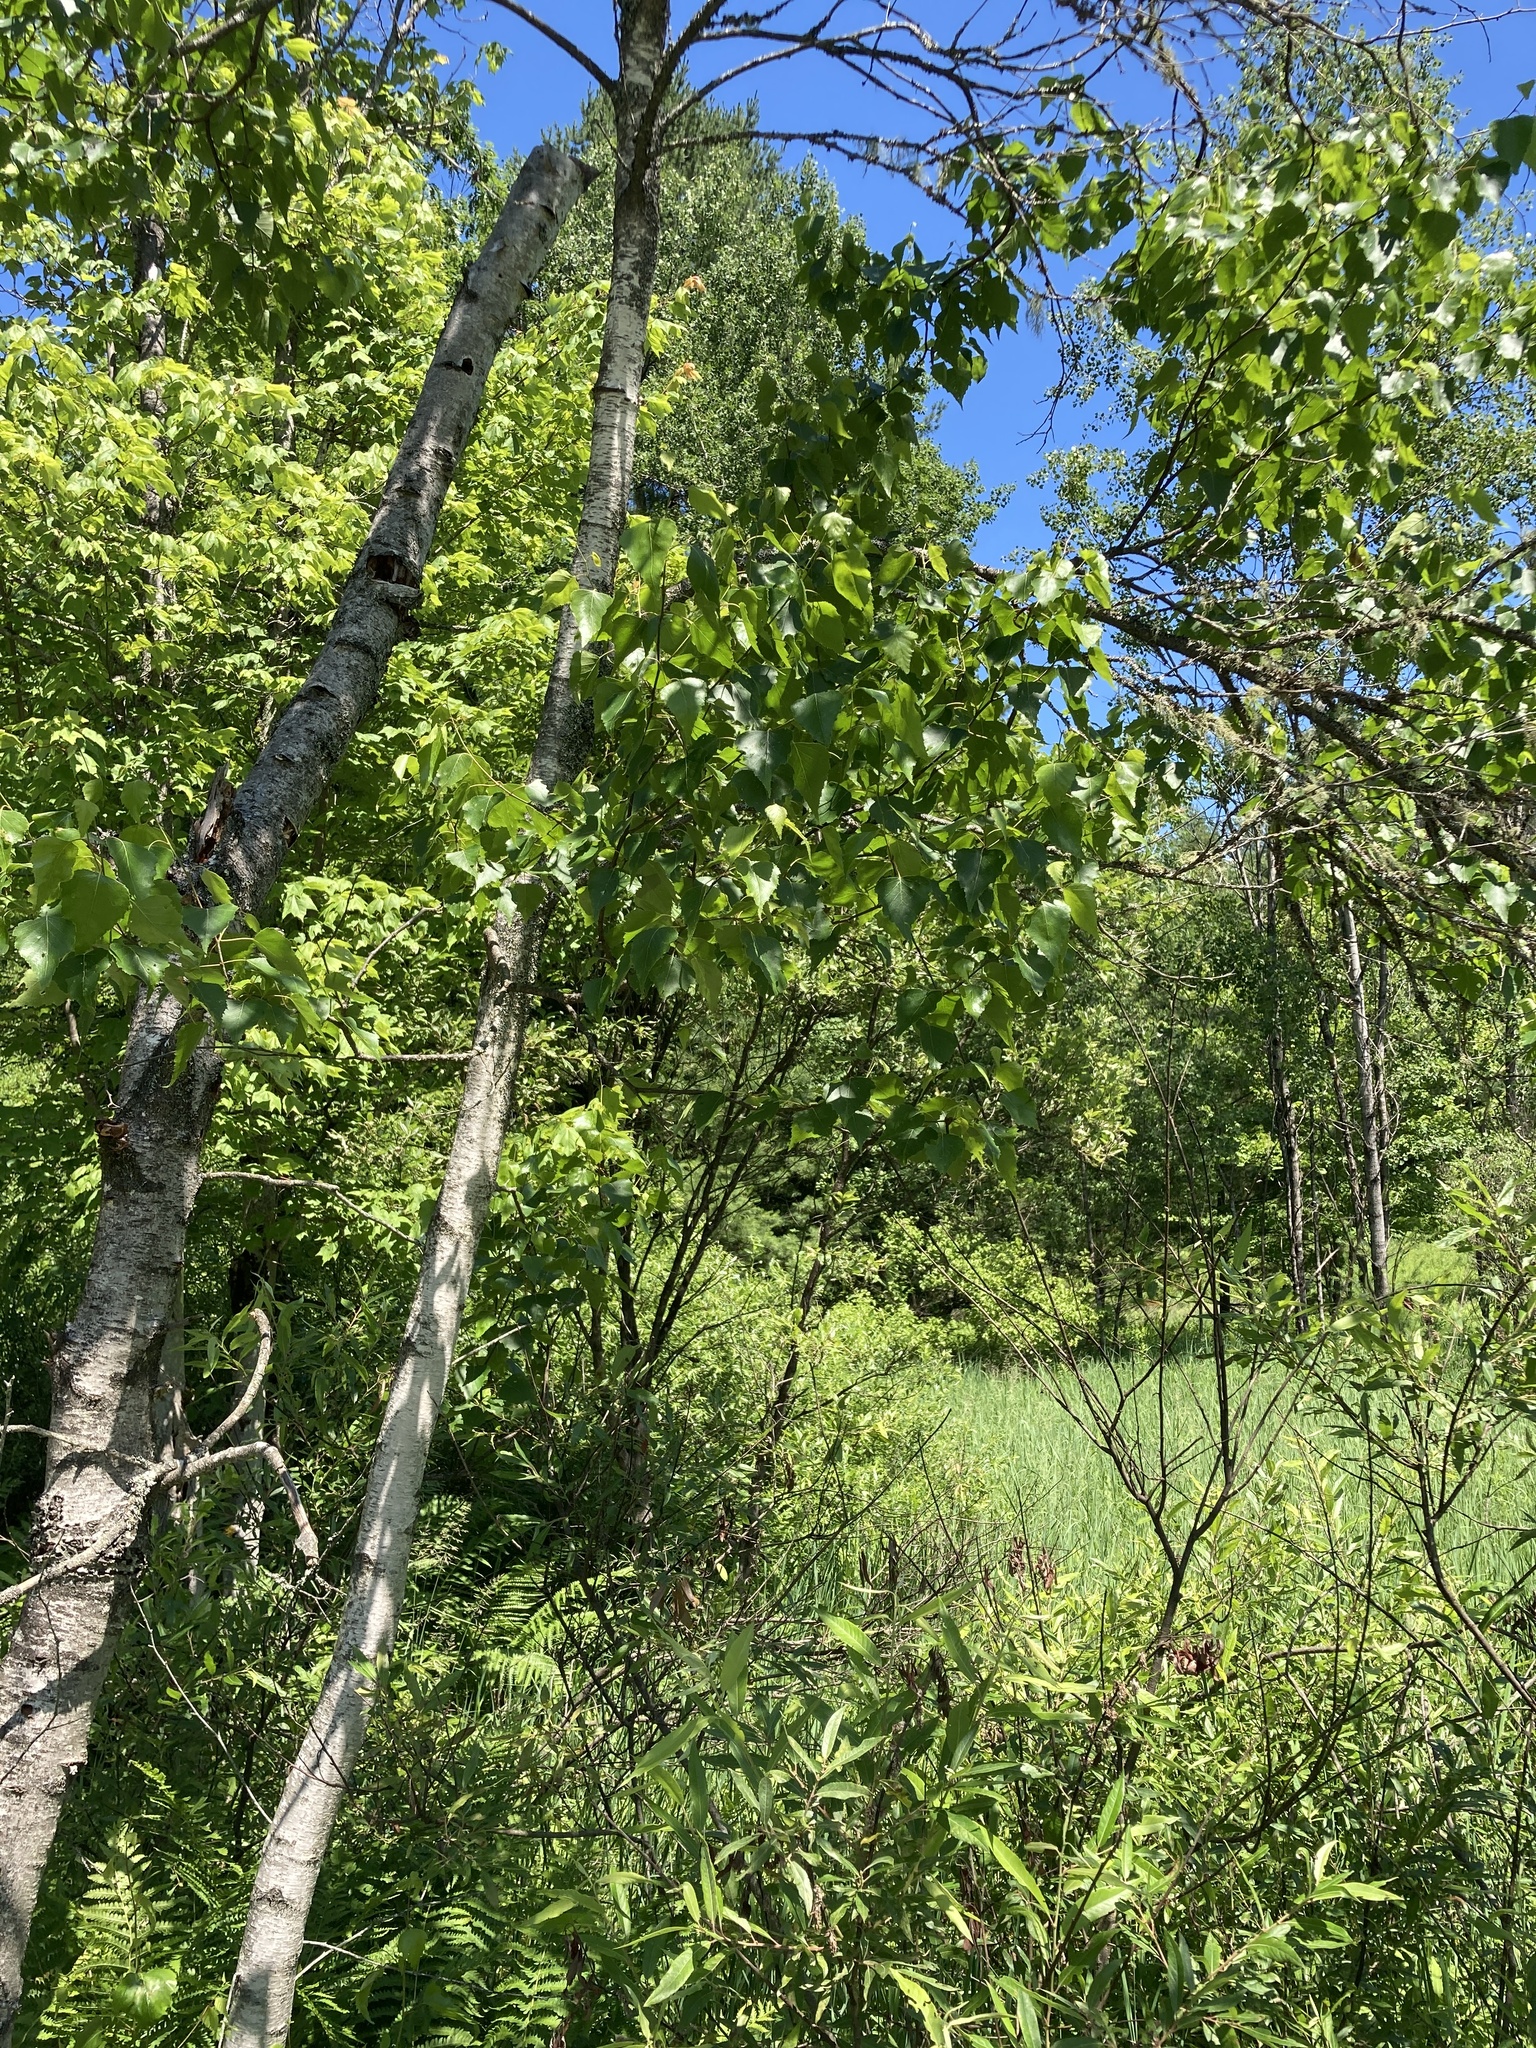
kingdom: Plantae
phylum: Tracheophyta
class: Magnoliopsida
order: Fagales
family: Betulaceae
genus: Betula
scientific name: Betula populifolia
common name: Fire birch
